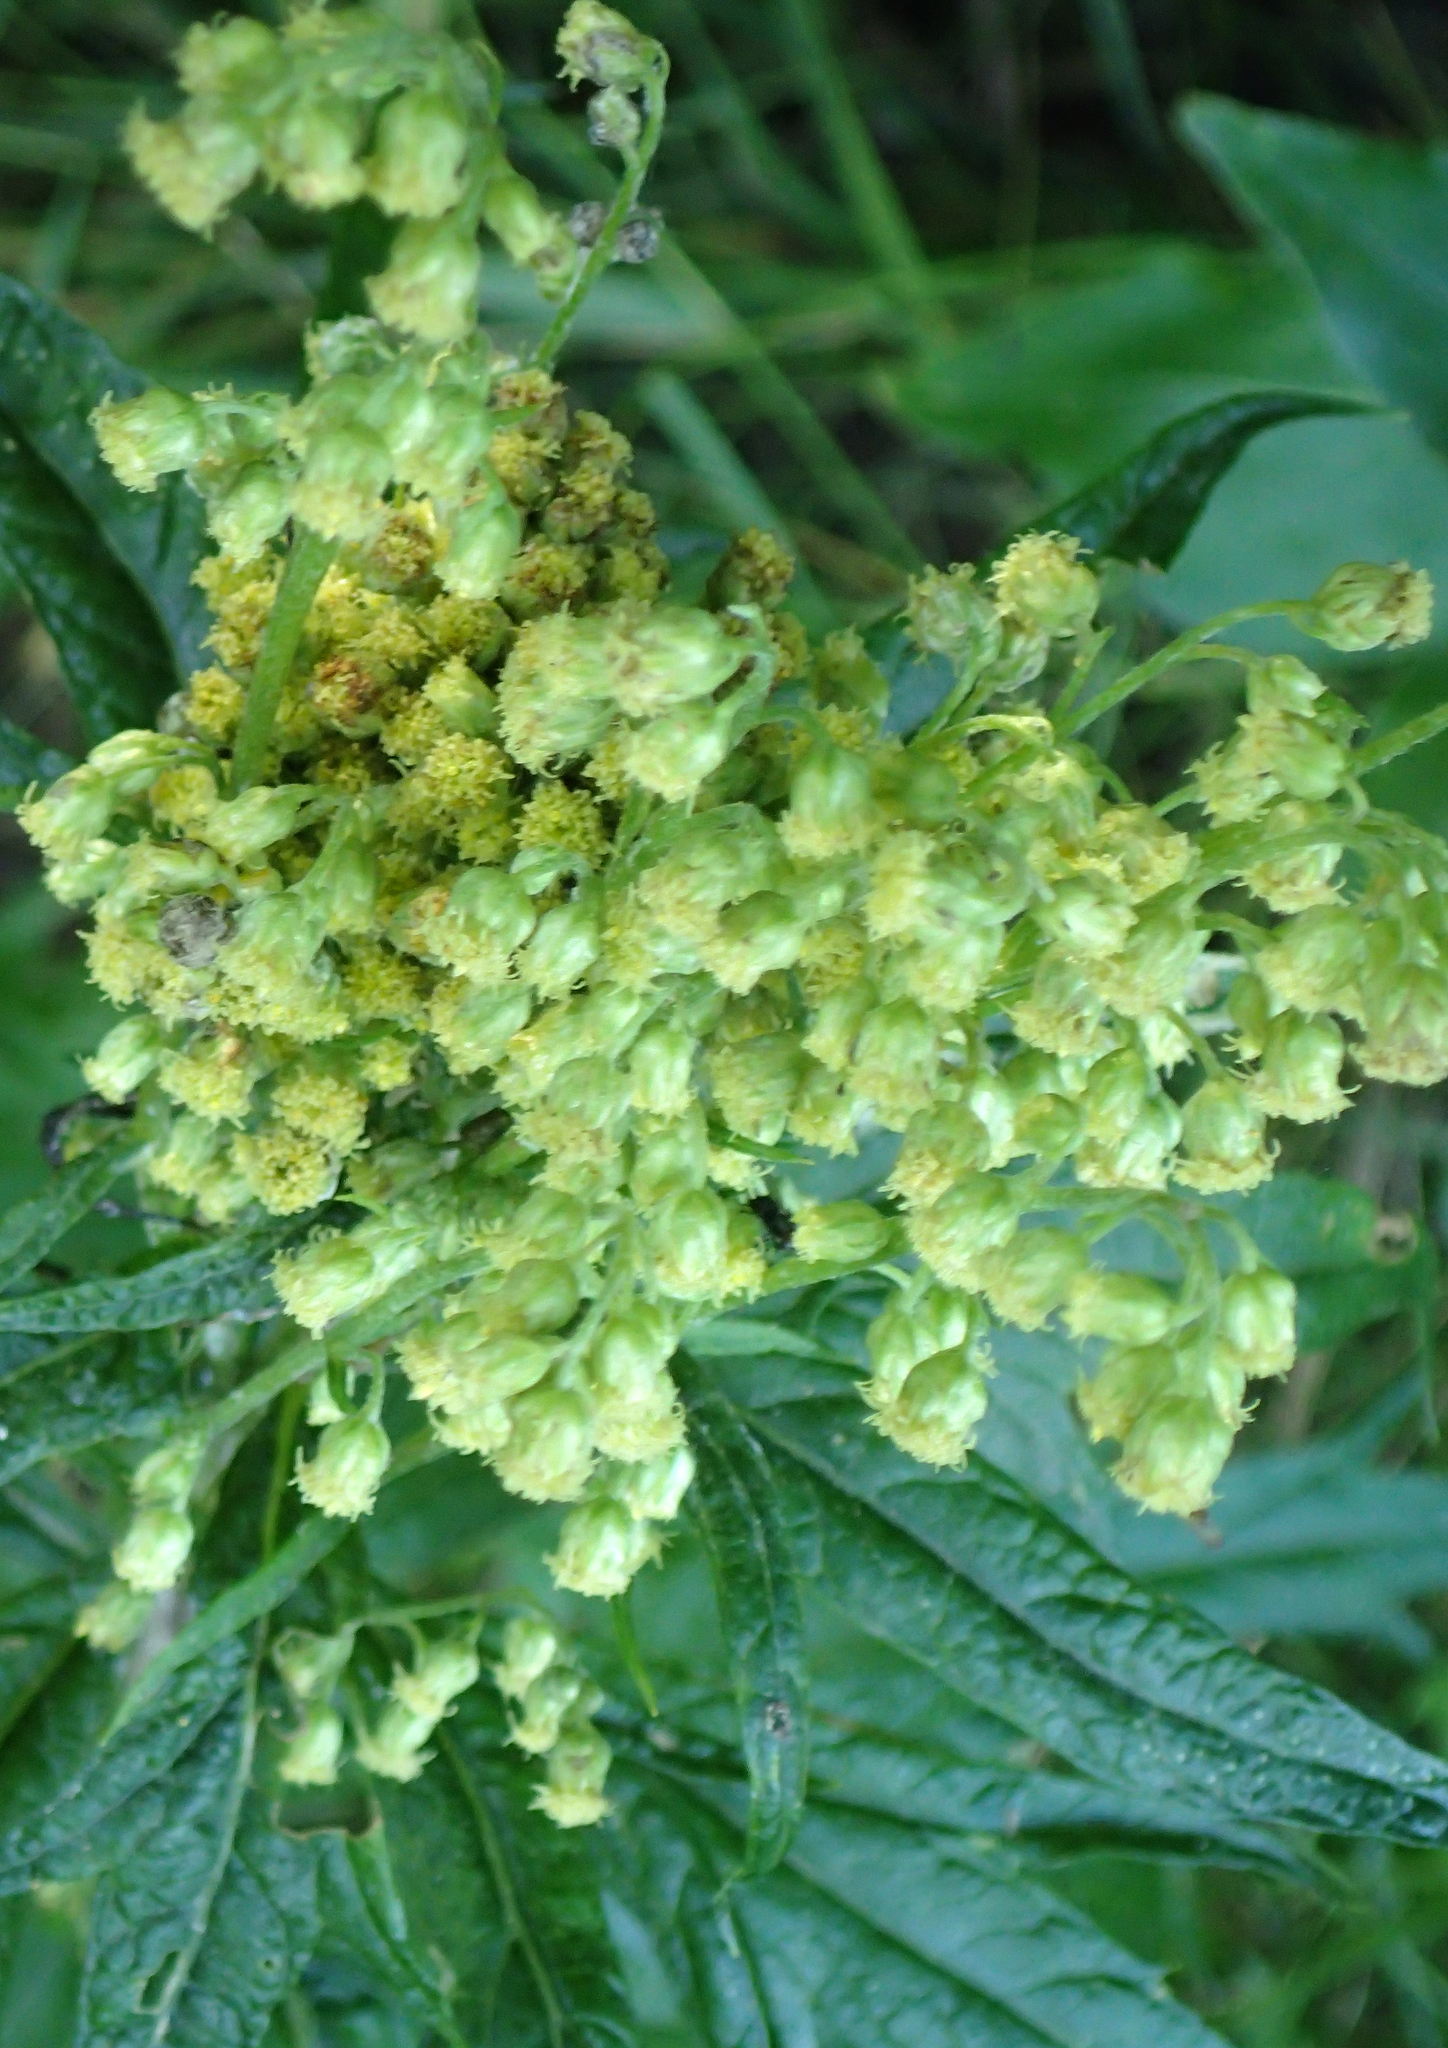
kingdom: Plantae
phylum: Tracheophyta
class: Magnoliopsida
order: Asterales
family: Asteraceae
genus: Artemisia
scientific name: Artemisia tilesii
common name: Aleutian mugwort
